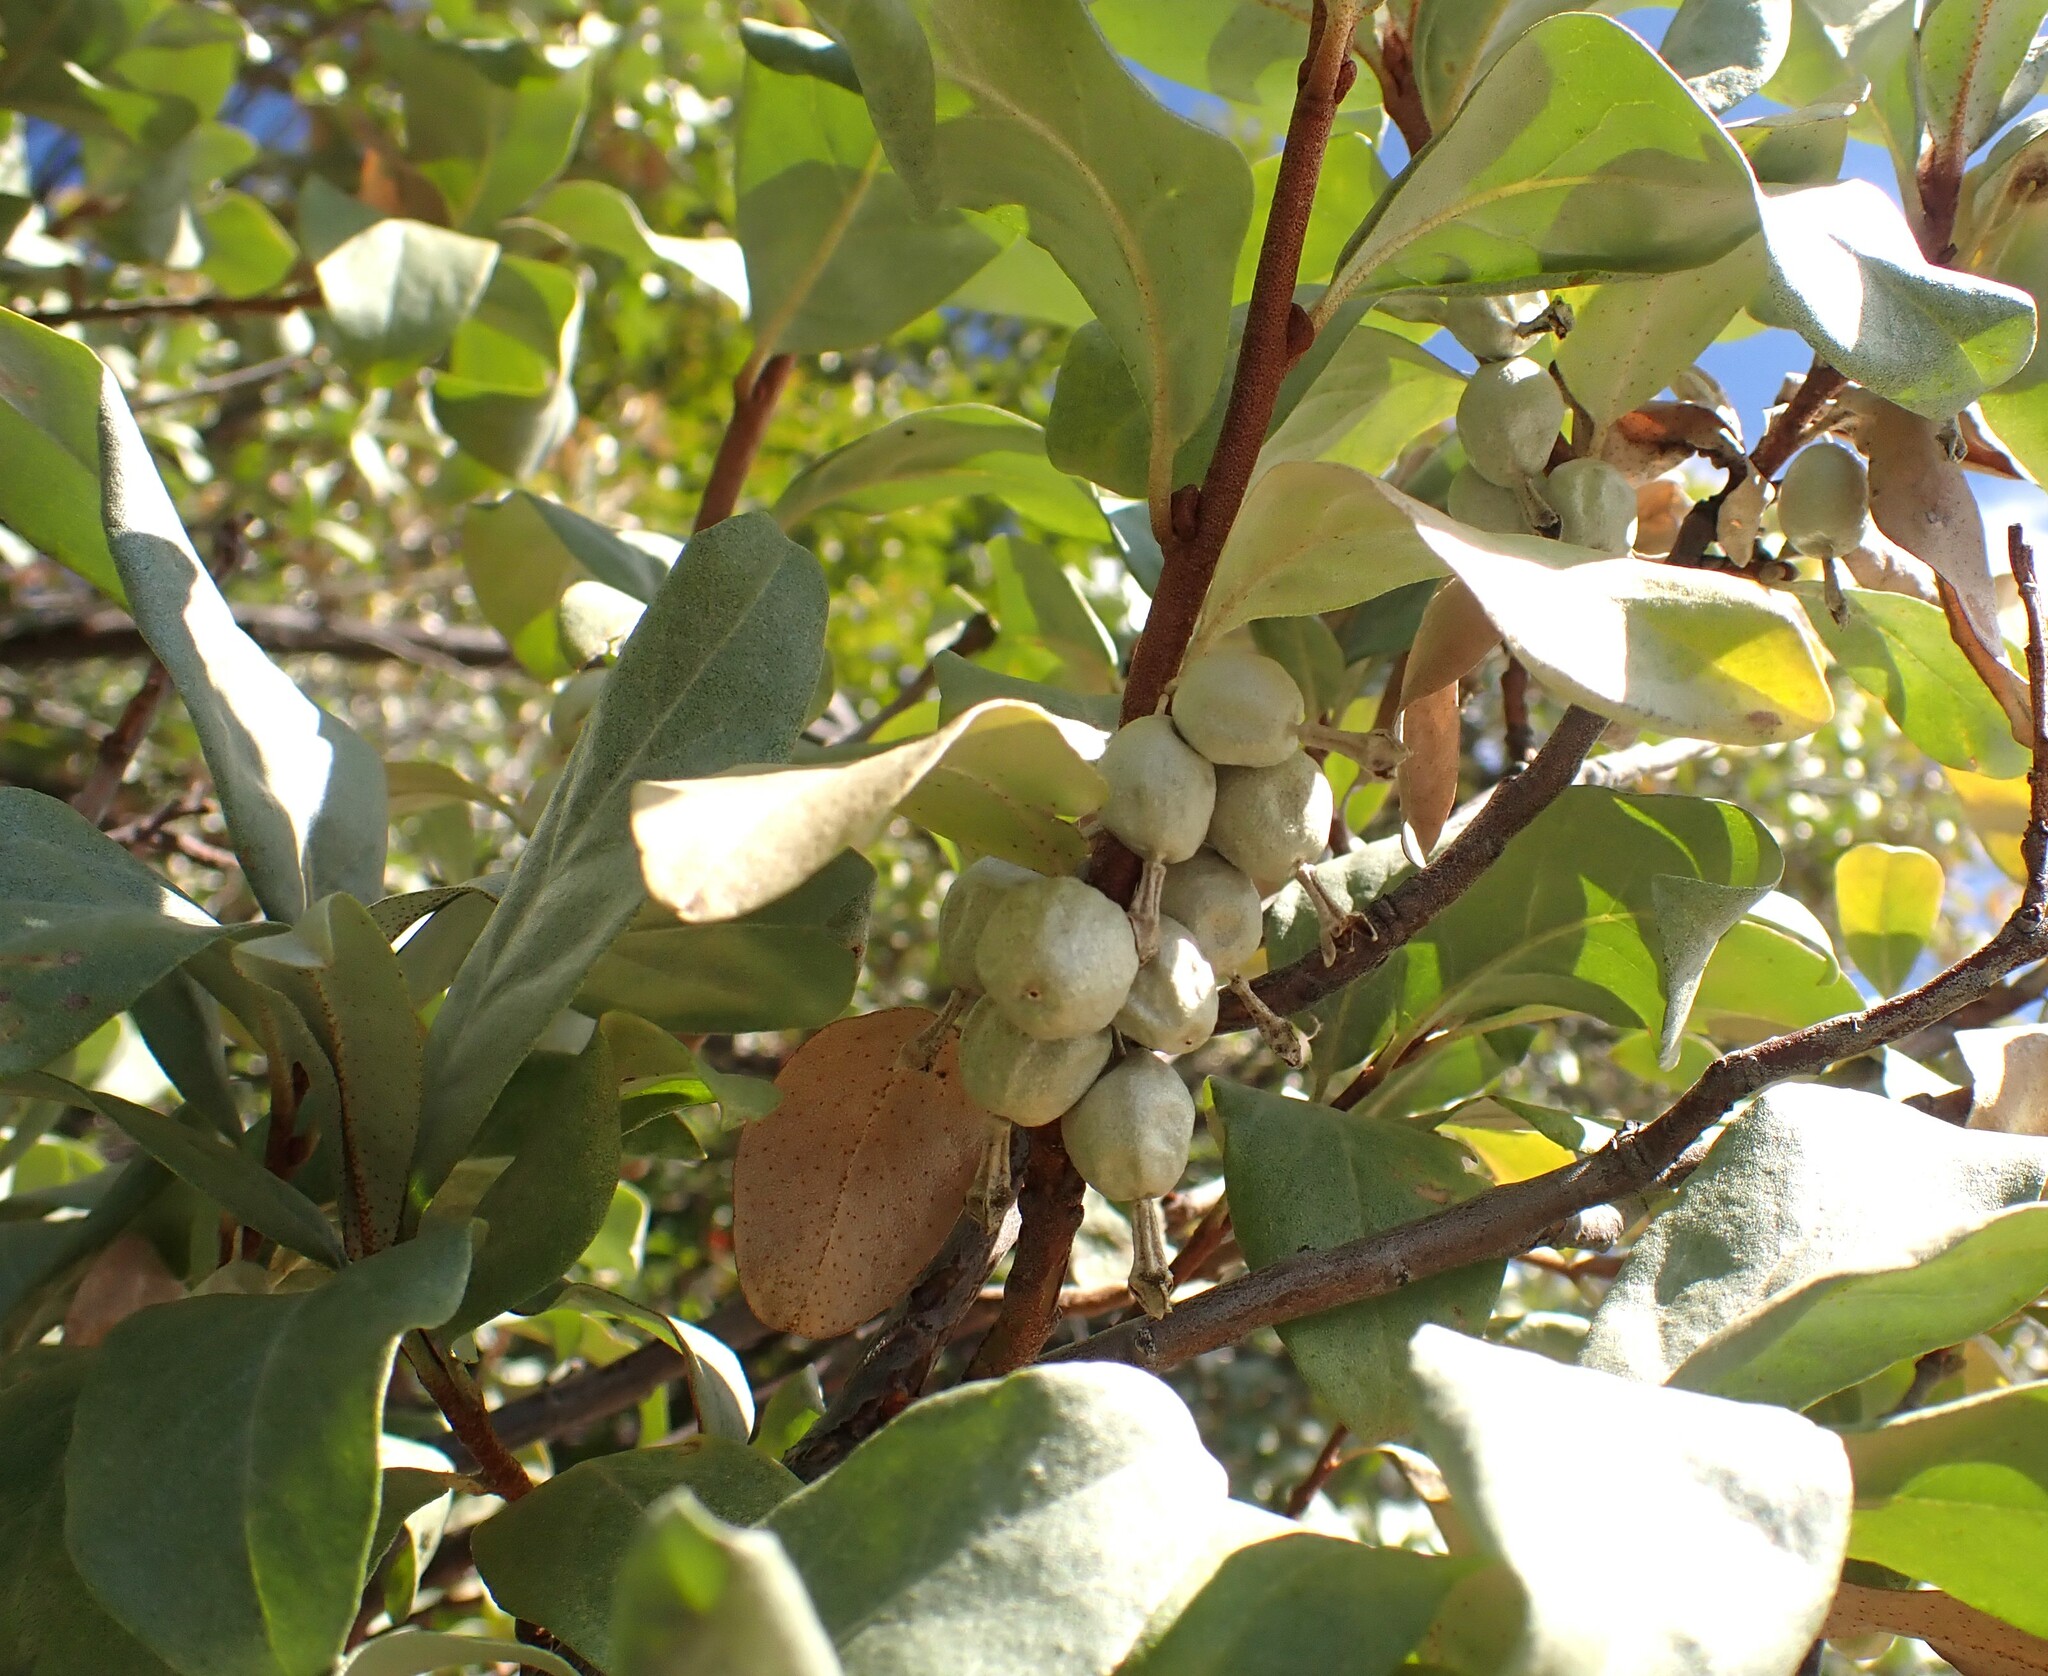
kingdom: Plantae
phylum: Tracheophyta
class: Magnoliopsida
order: Rosales
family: Elaeagnaceae
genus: Elaeagnus
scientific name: Elaeagnus commutata
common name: Silverberry
